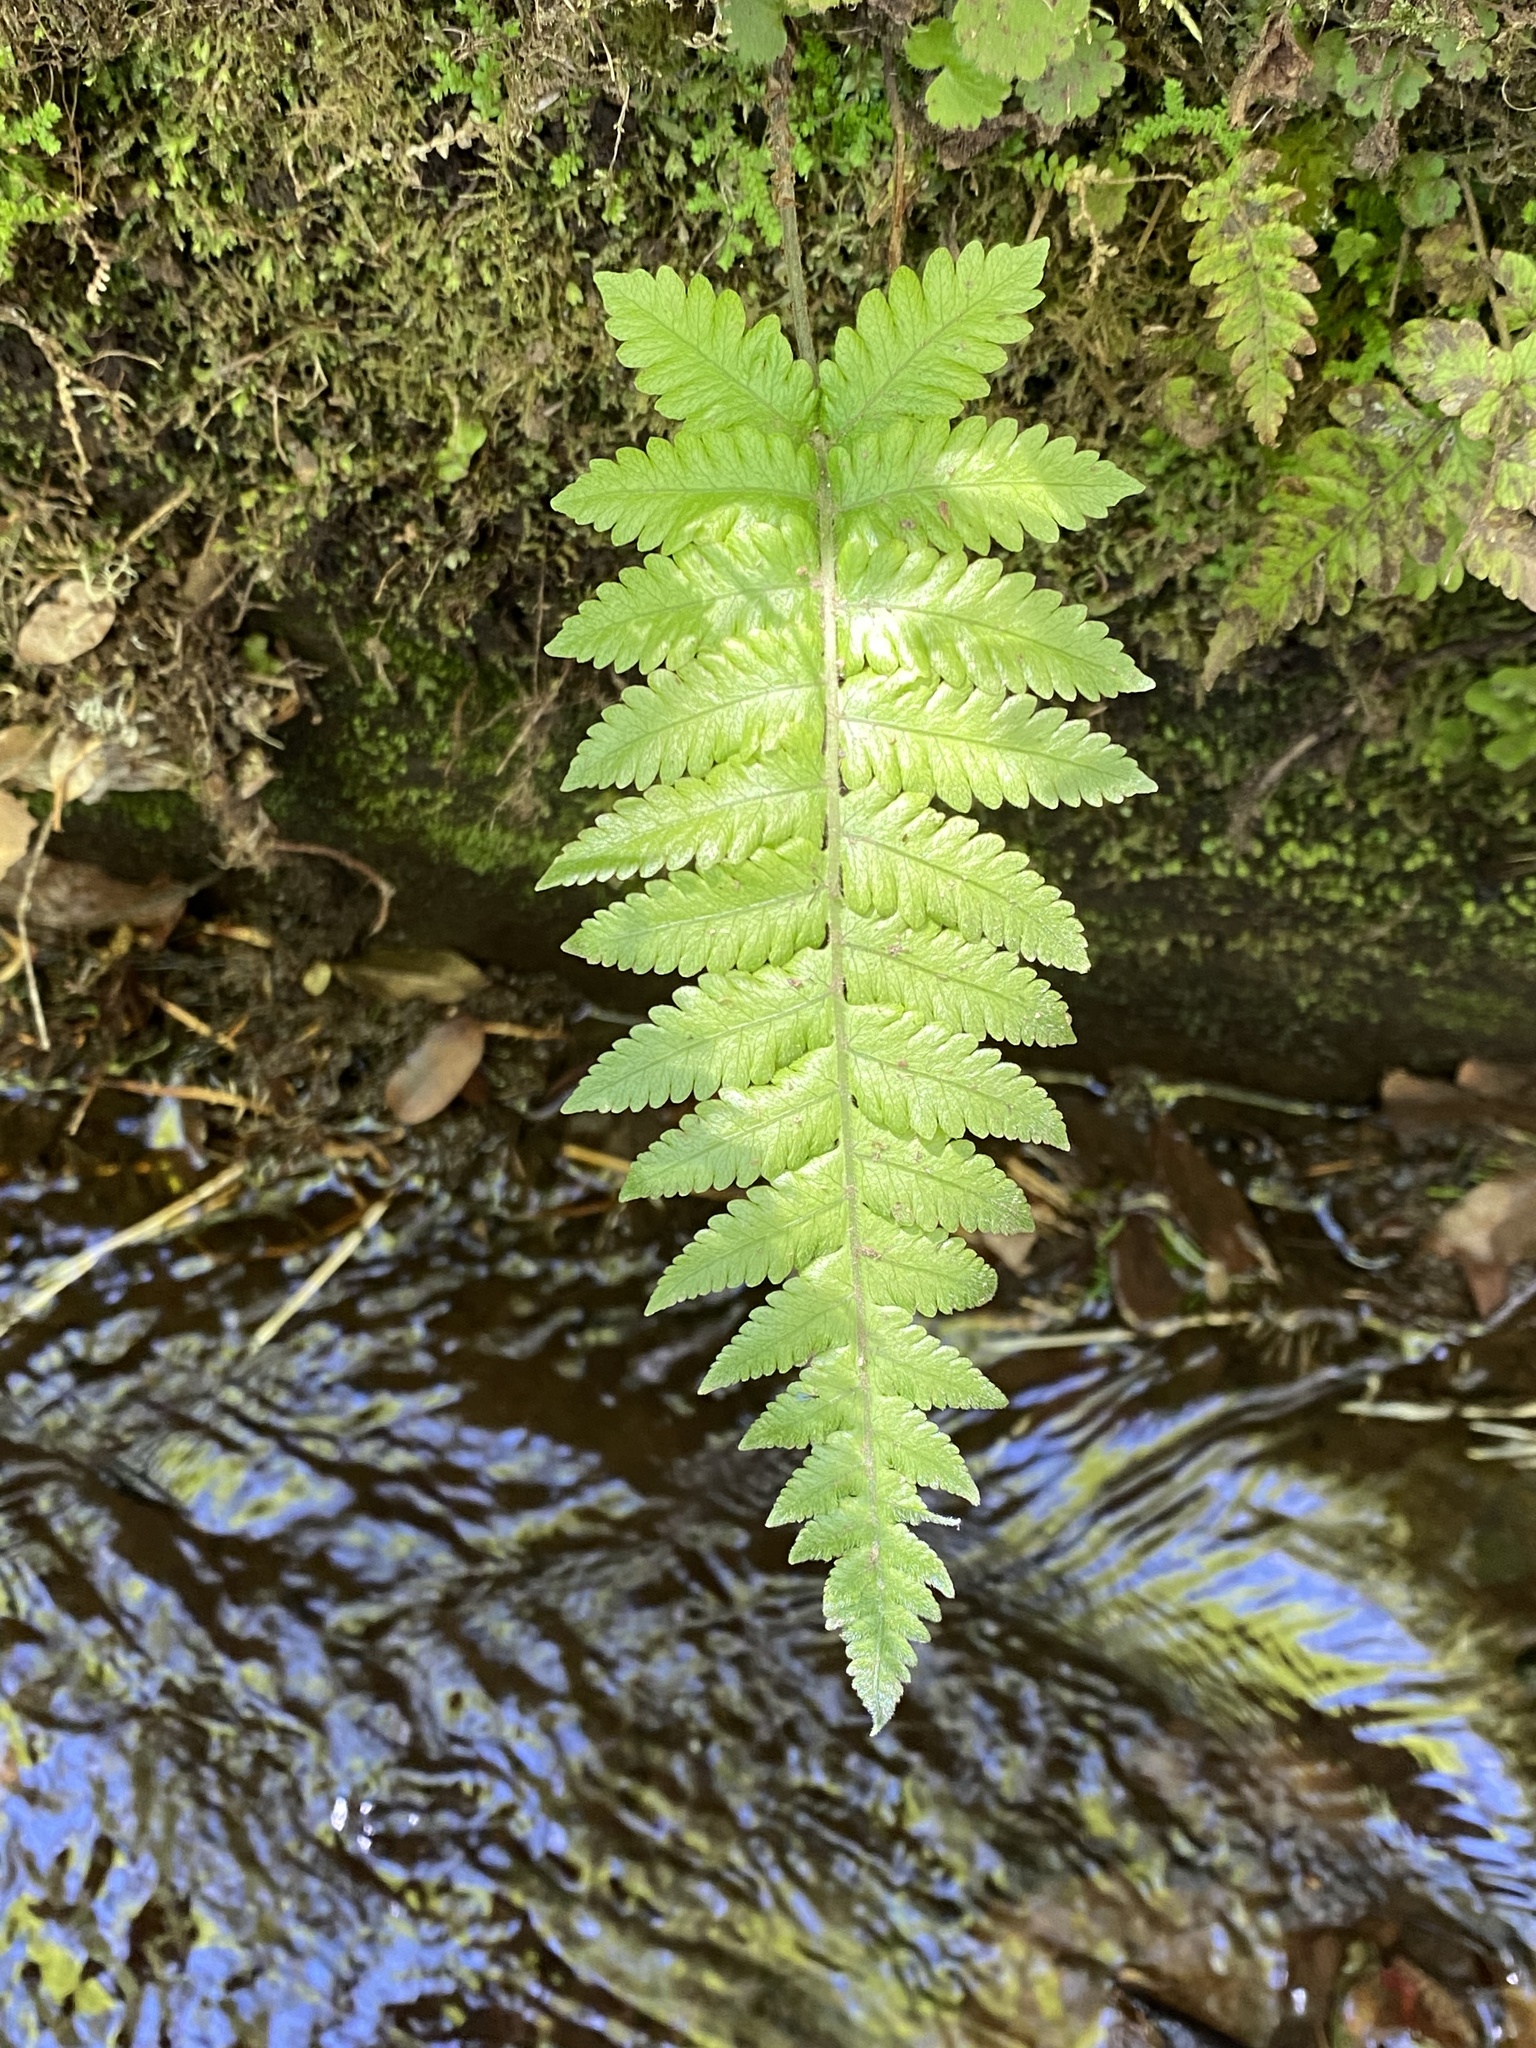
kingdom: Plantae
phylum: Tracheophyta
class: Polypodiopsida
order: Polypodiales
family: Thelypteridaceae
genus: Christella
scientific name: Christella dentata
